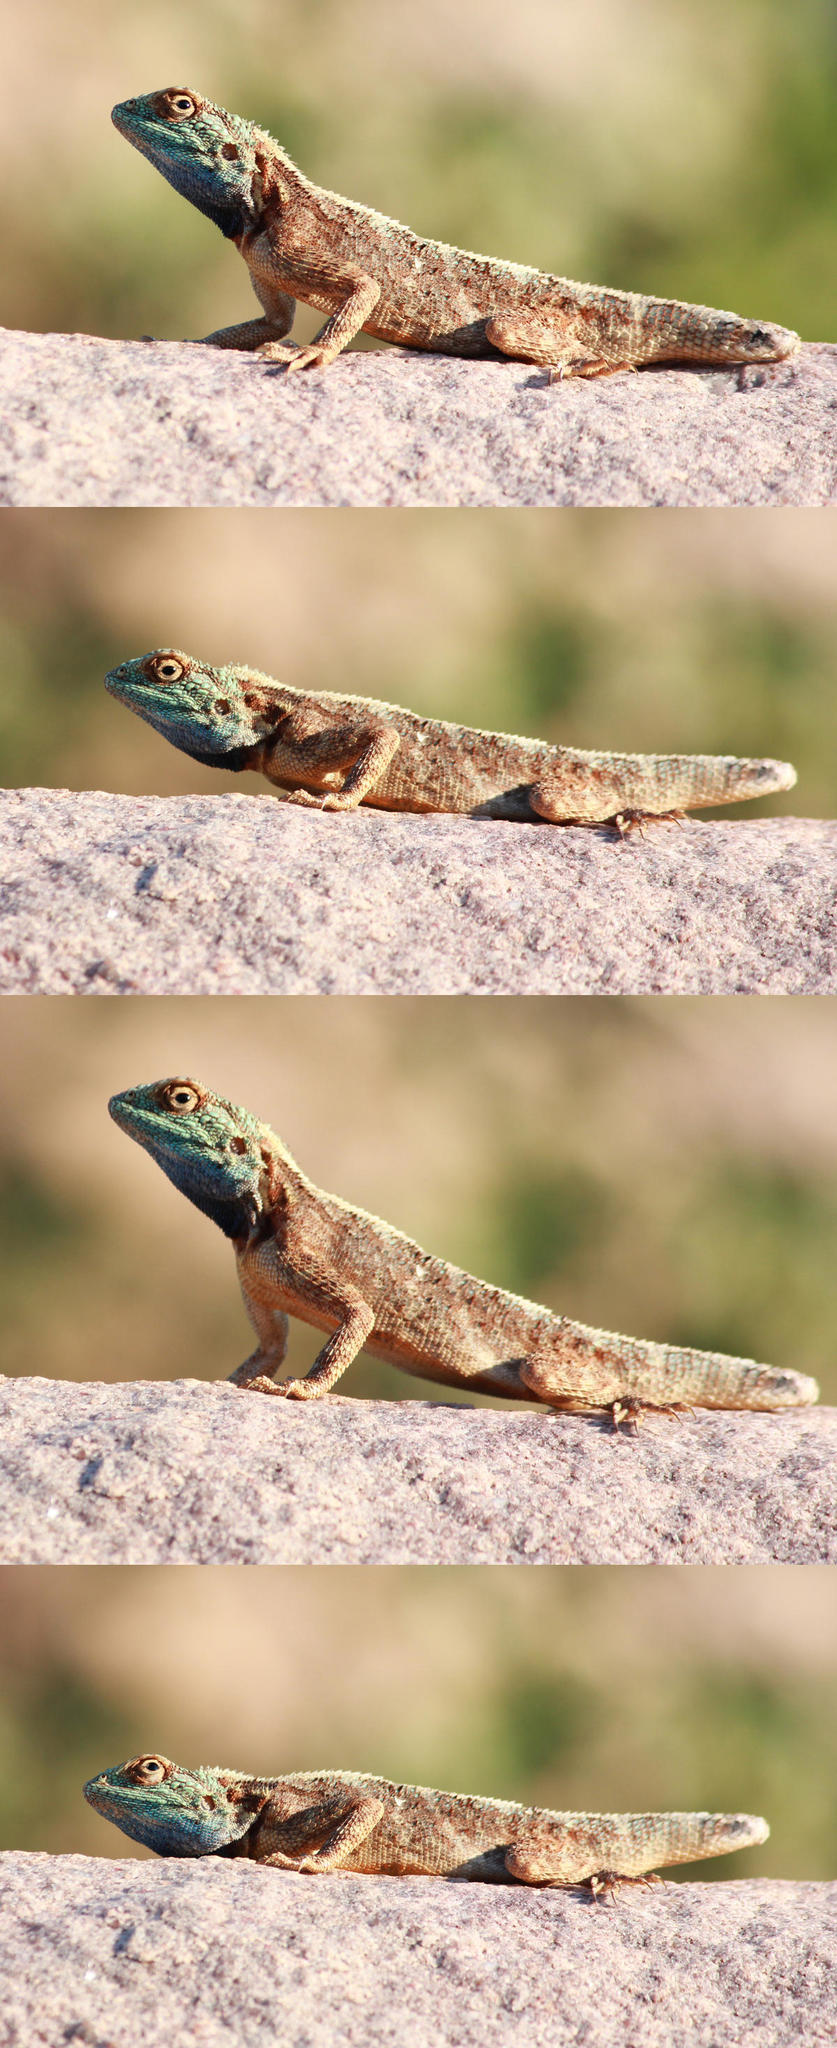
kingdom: Animalia
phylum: Chordata
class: Squamata
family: Agamidae
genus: Agama
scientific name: Agama armata
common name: Northern ground agama
